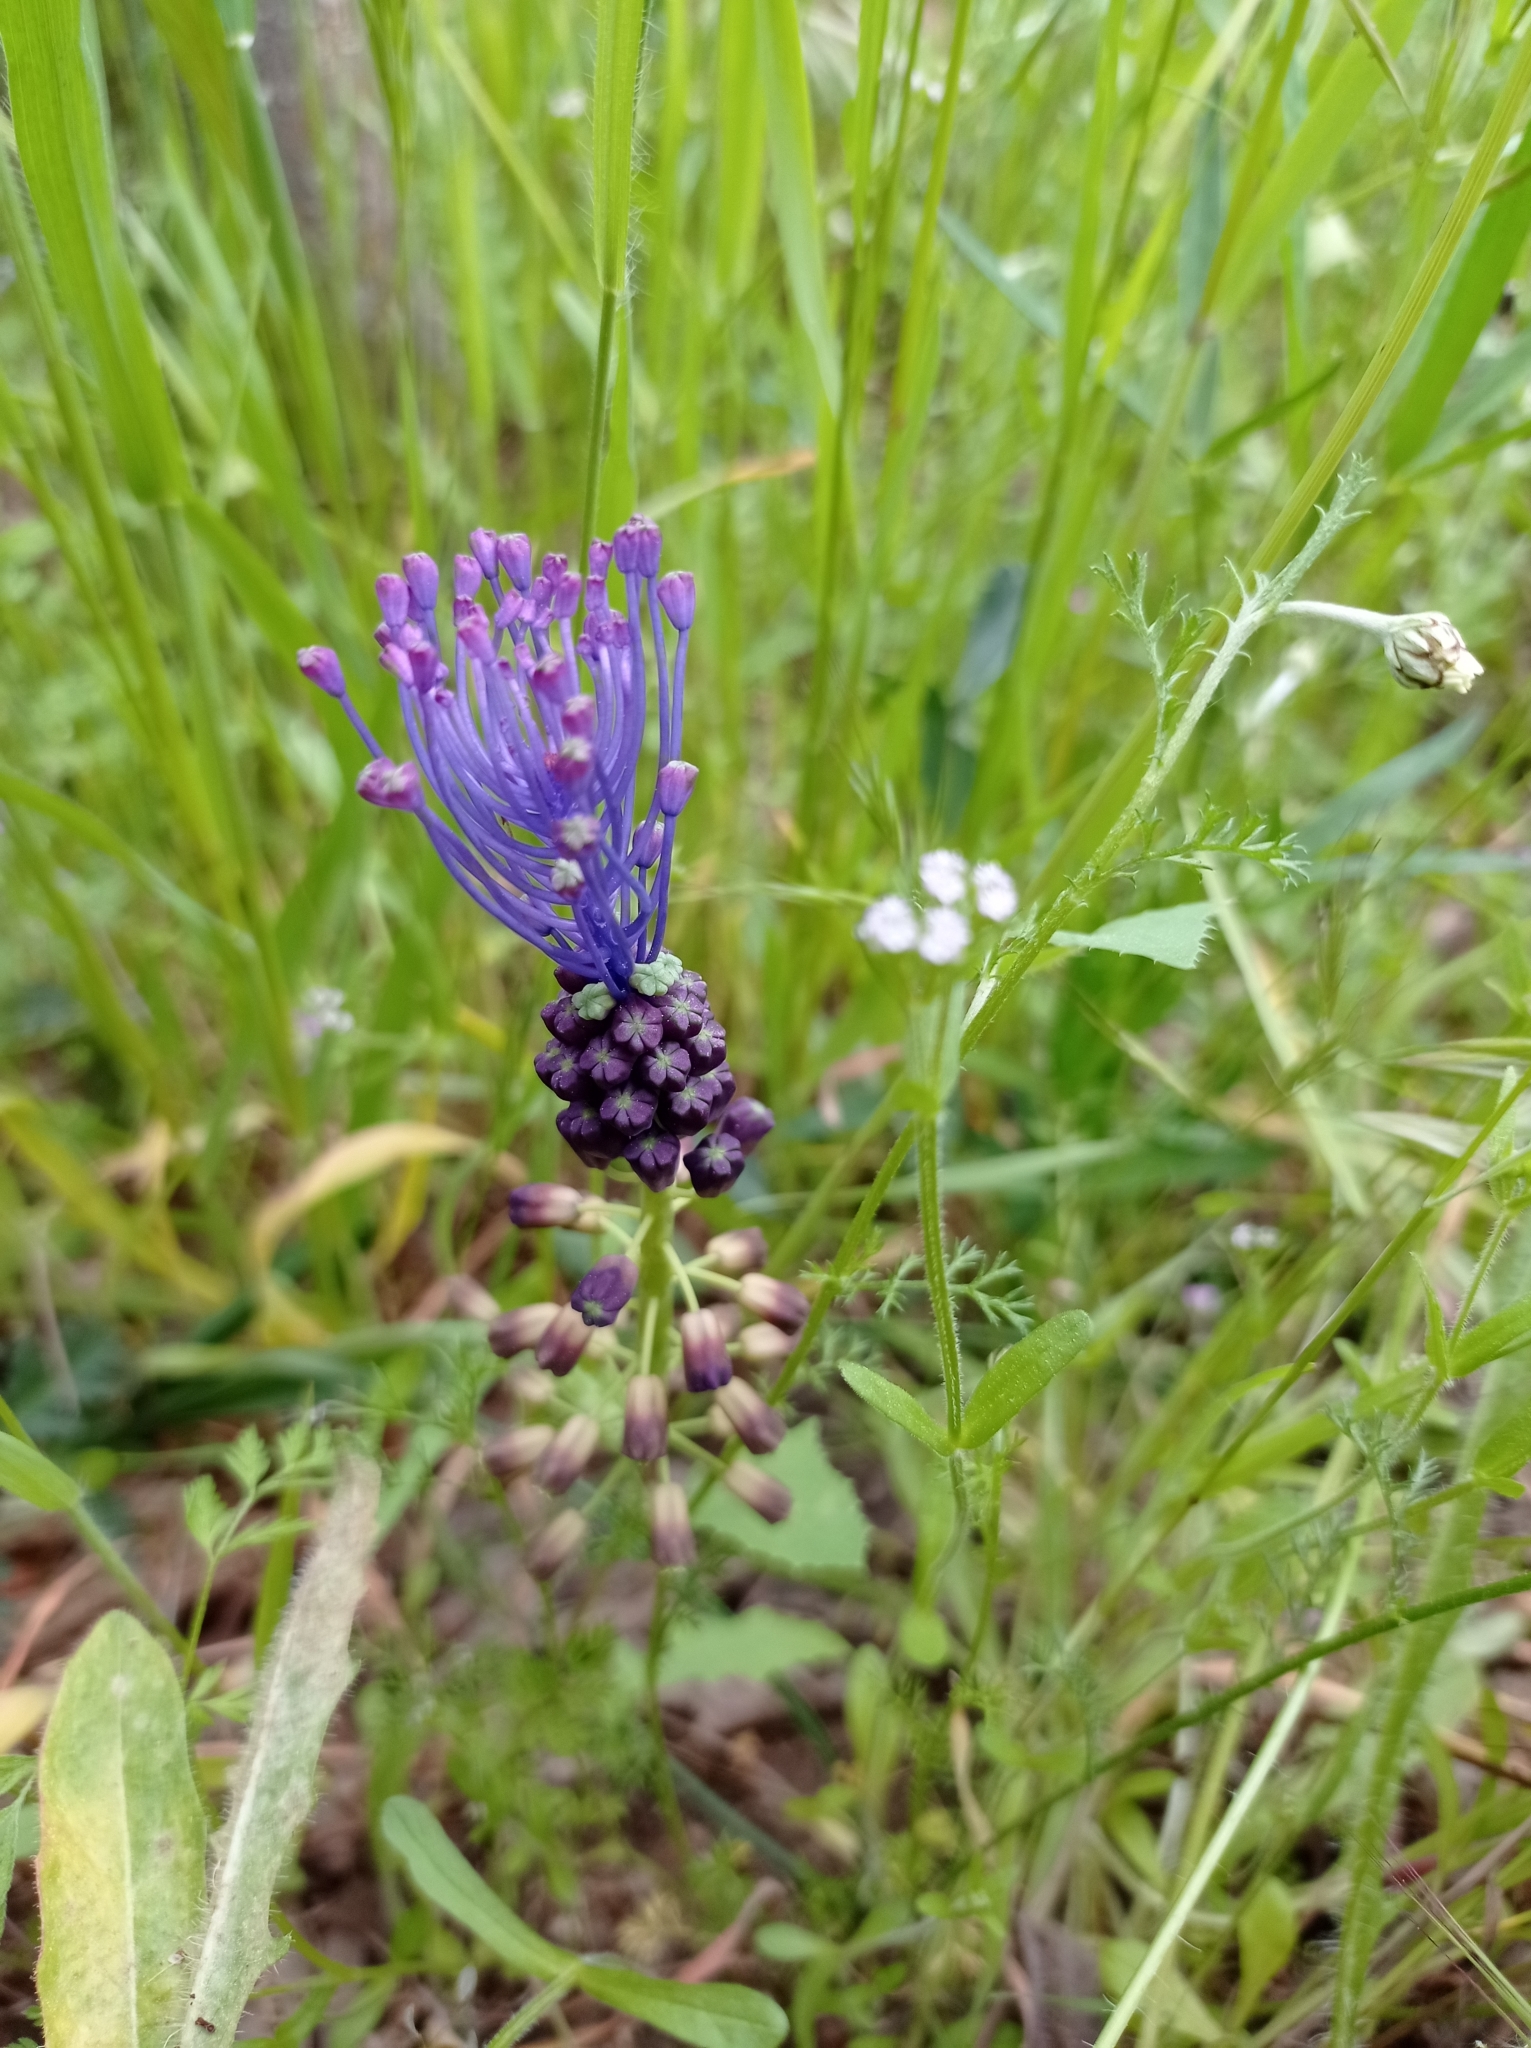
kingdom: Plantae
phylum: Tracheophyta
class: Liliopsida
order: Asparagales
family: Asparagaceae
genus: Muscari
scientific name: Muscari comosum
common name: Tassel hyacinth
